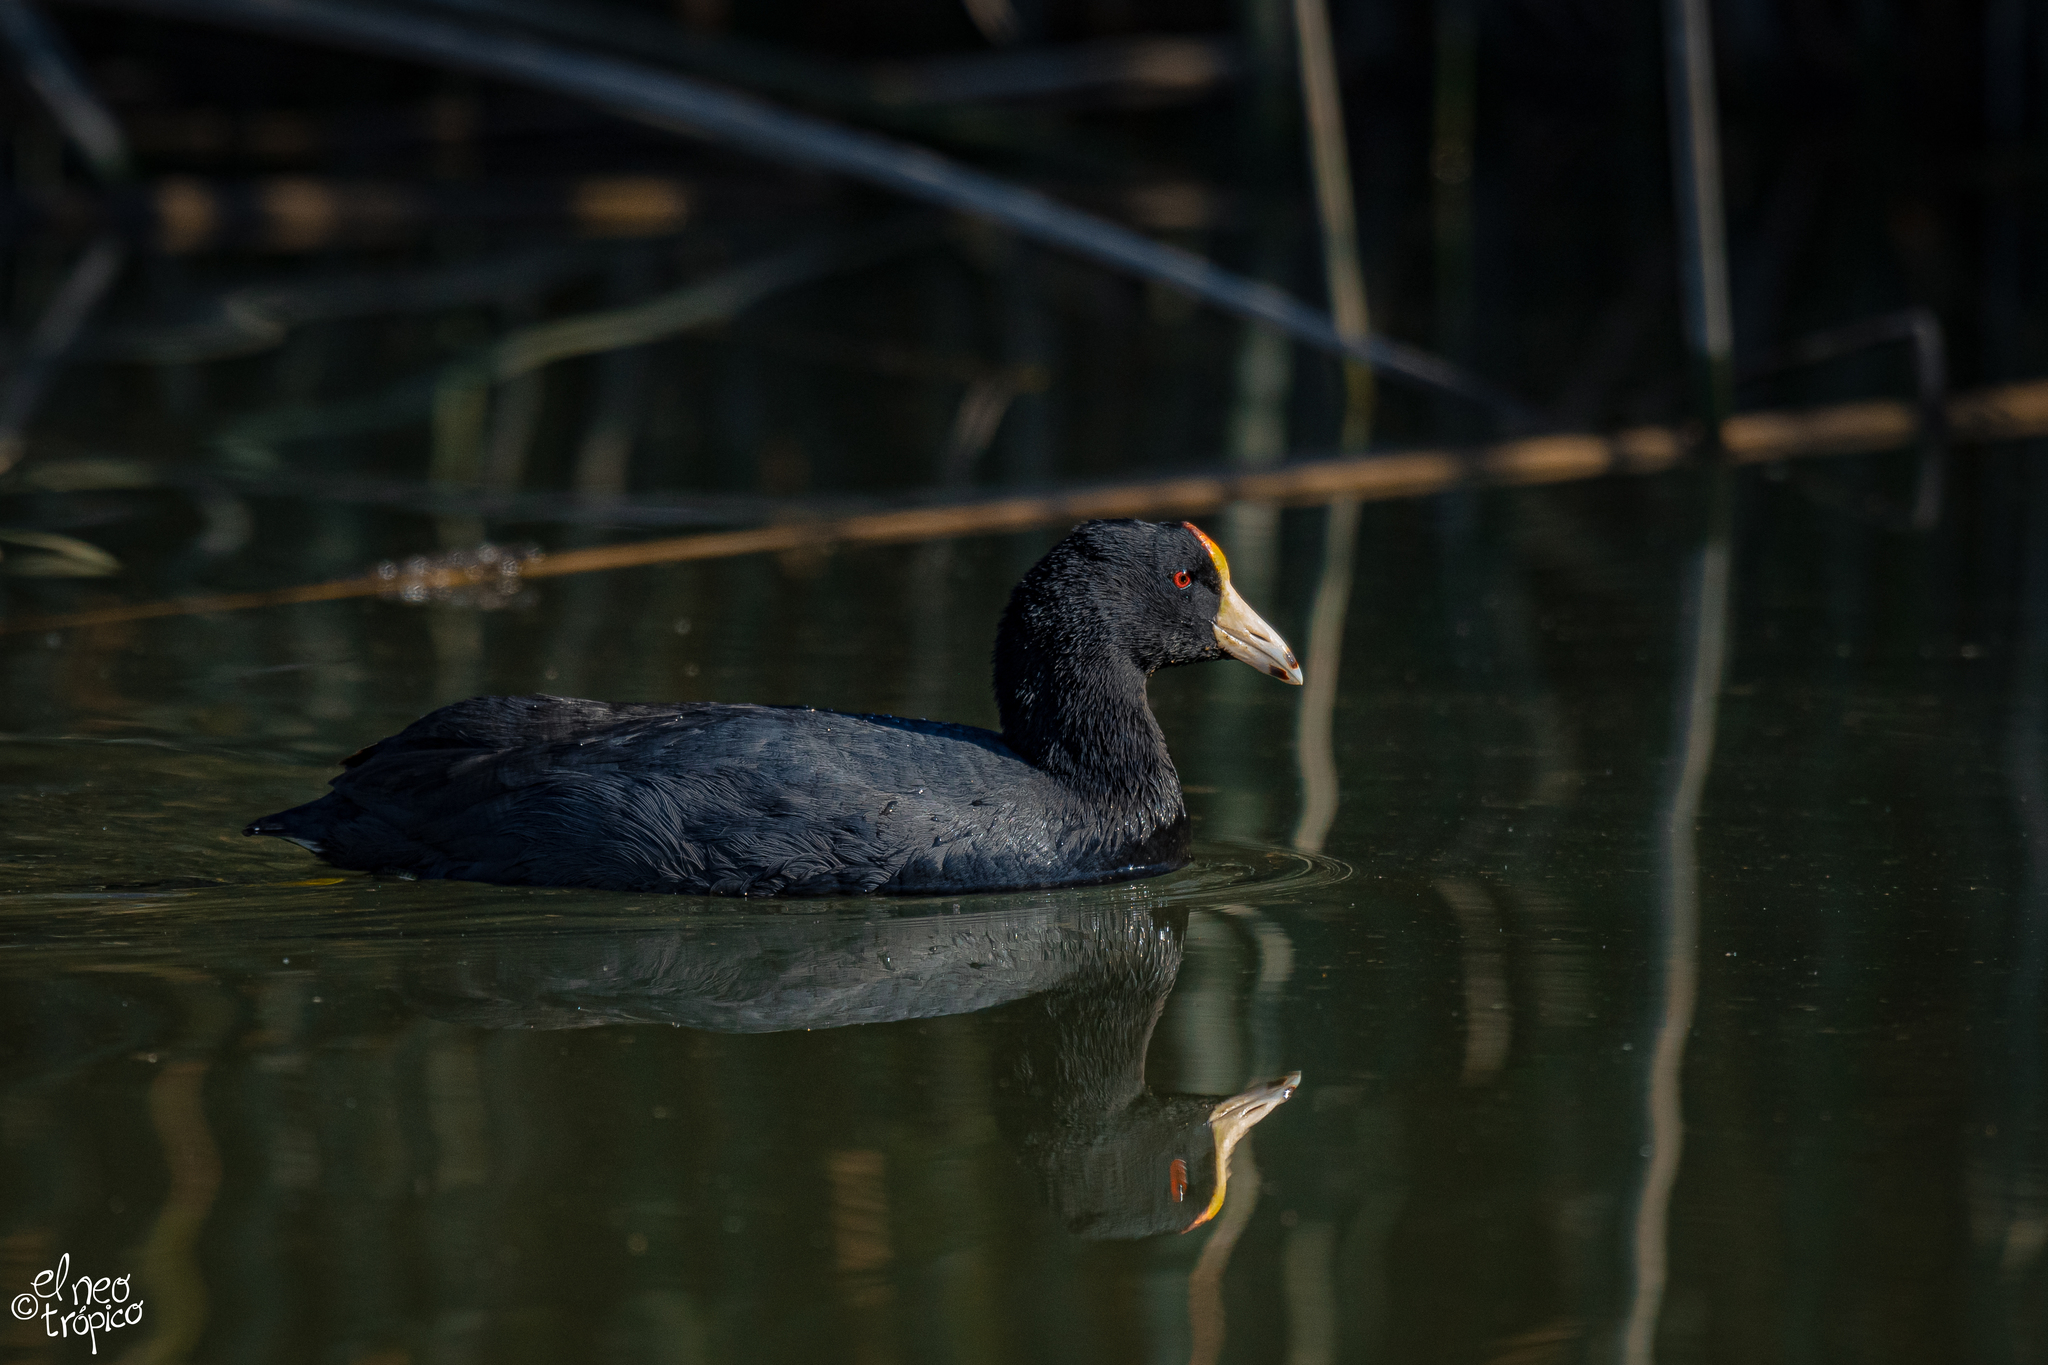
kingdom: Animalia
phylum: Chordata
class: Aves
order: Gruiformes
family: Rallidae
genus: Fulica
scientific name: Fulica americana
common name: American coot
